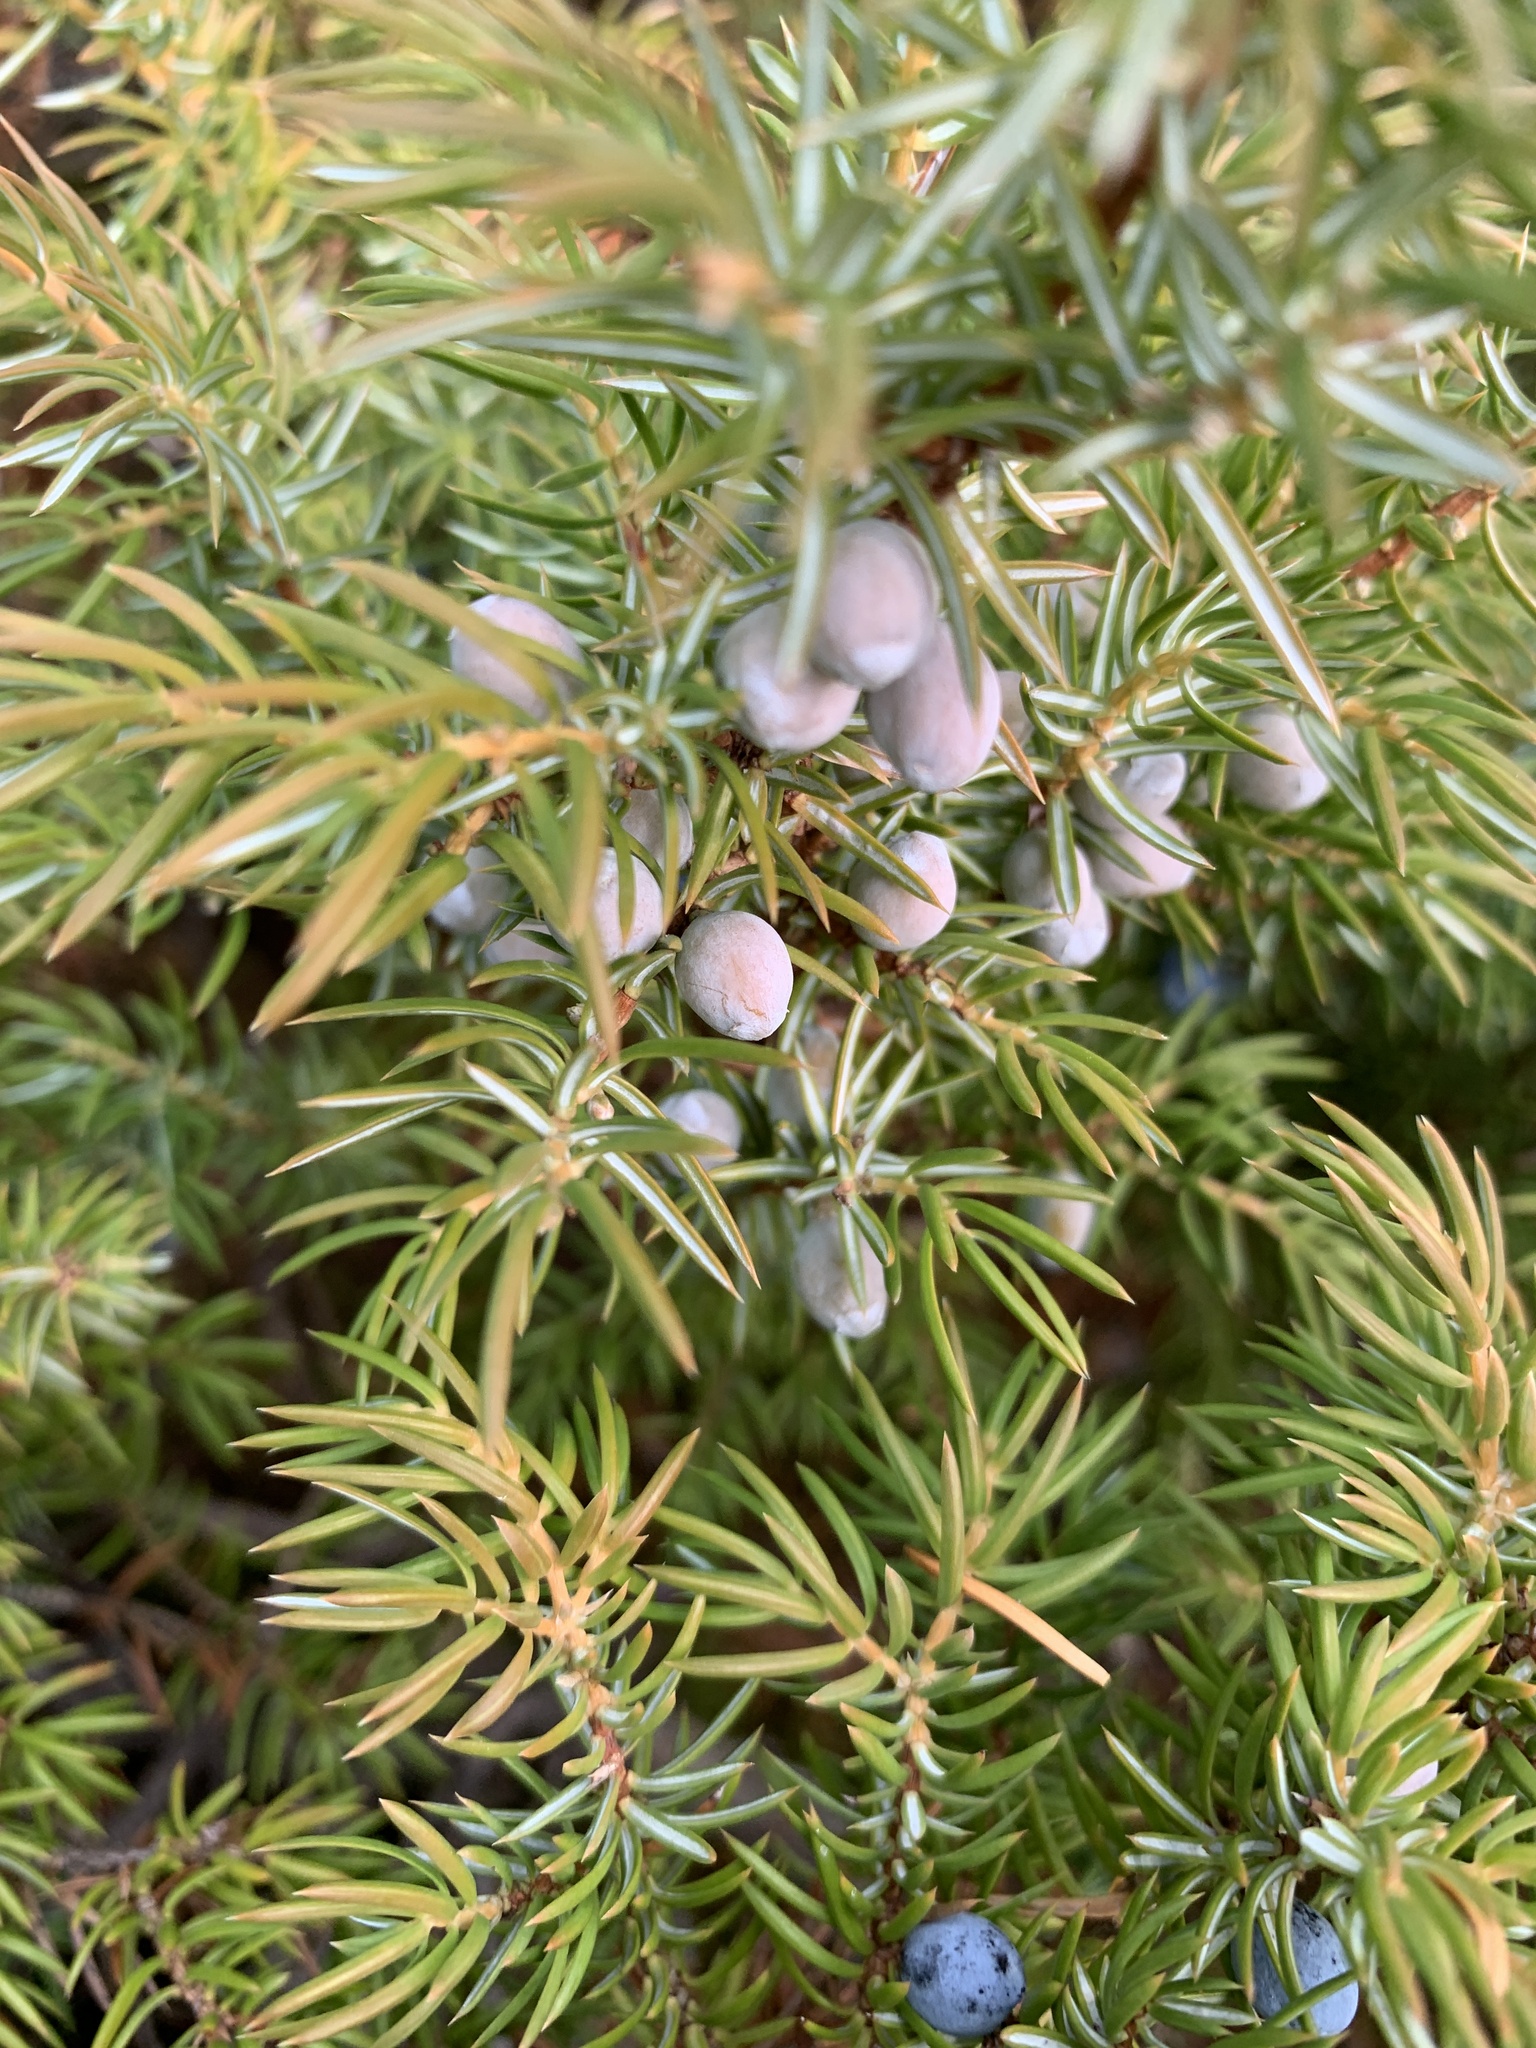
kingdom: Plantae
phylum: Tracheophyta
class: Pinopsida
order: Pinales
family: Cupressaceae
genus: Juniperus
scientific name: Juniperus communis
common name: Common juniper
